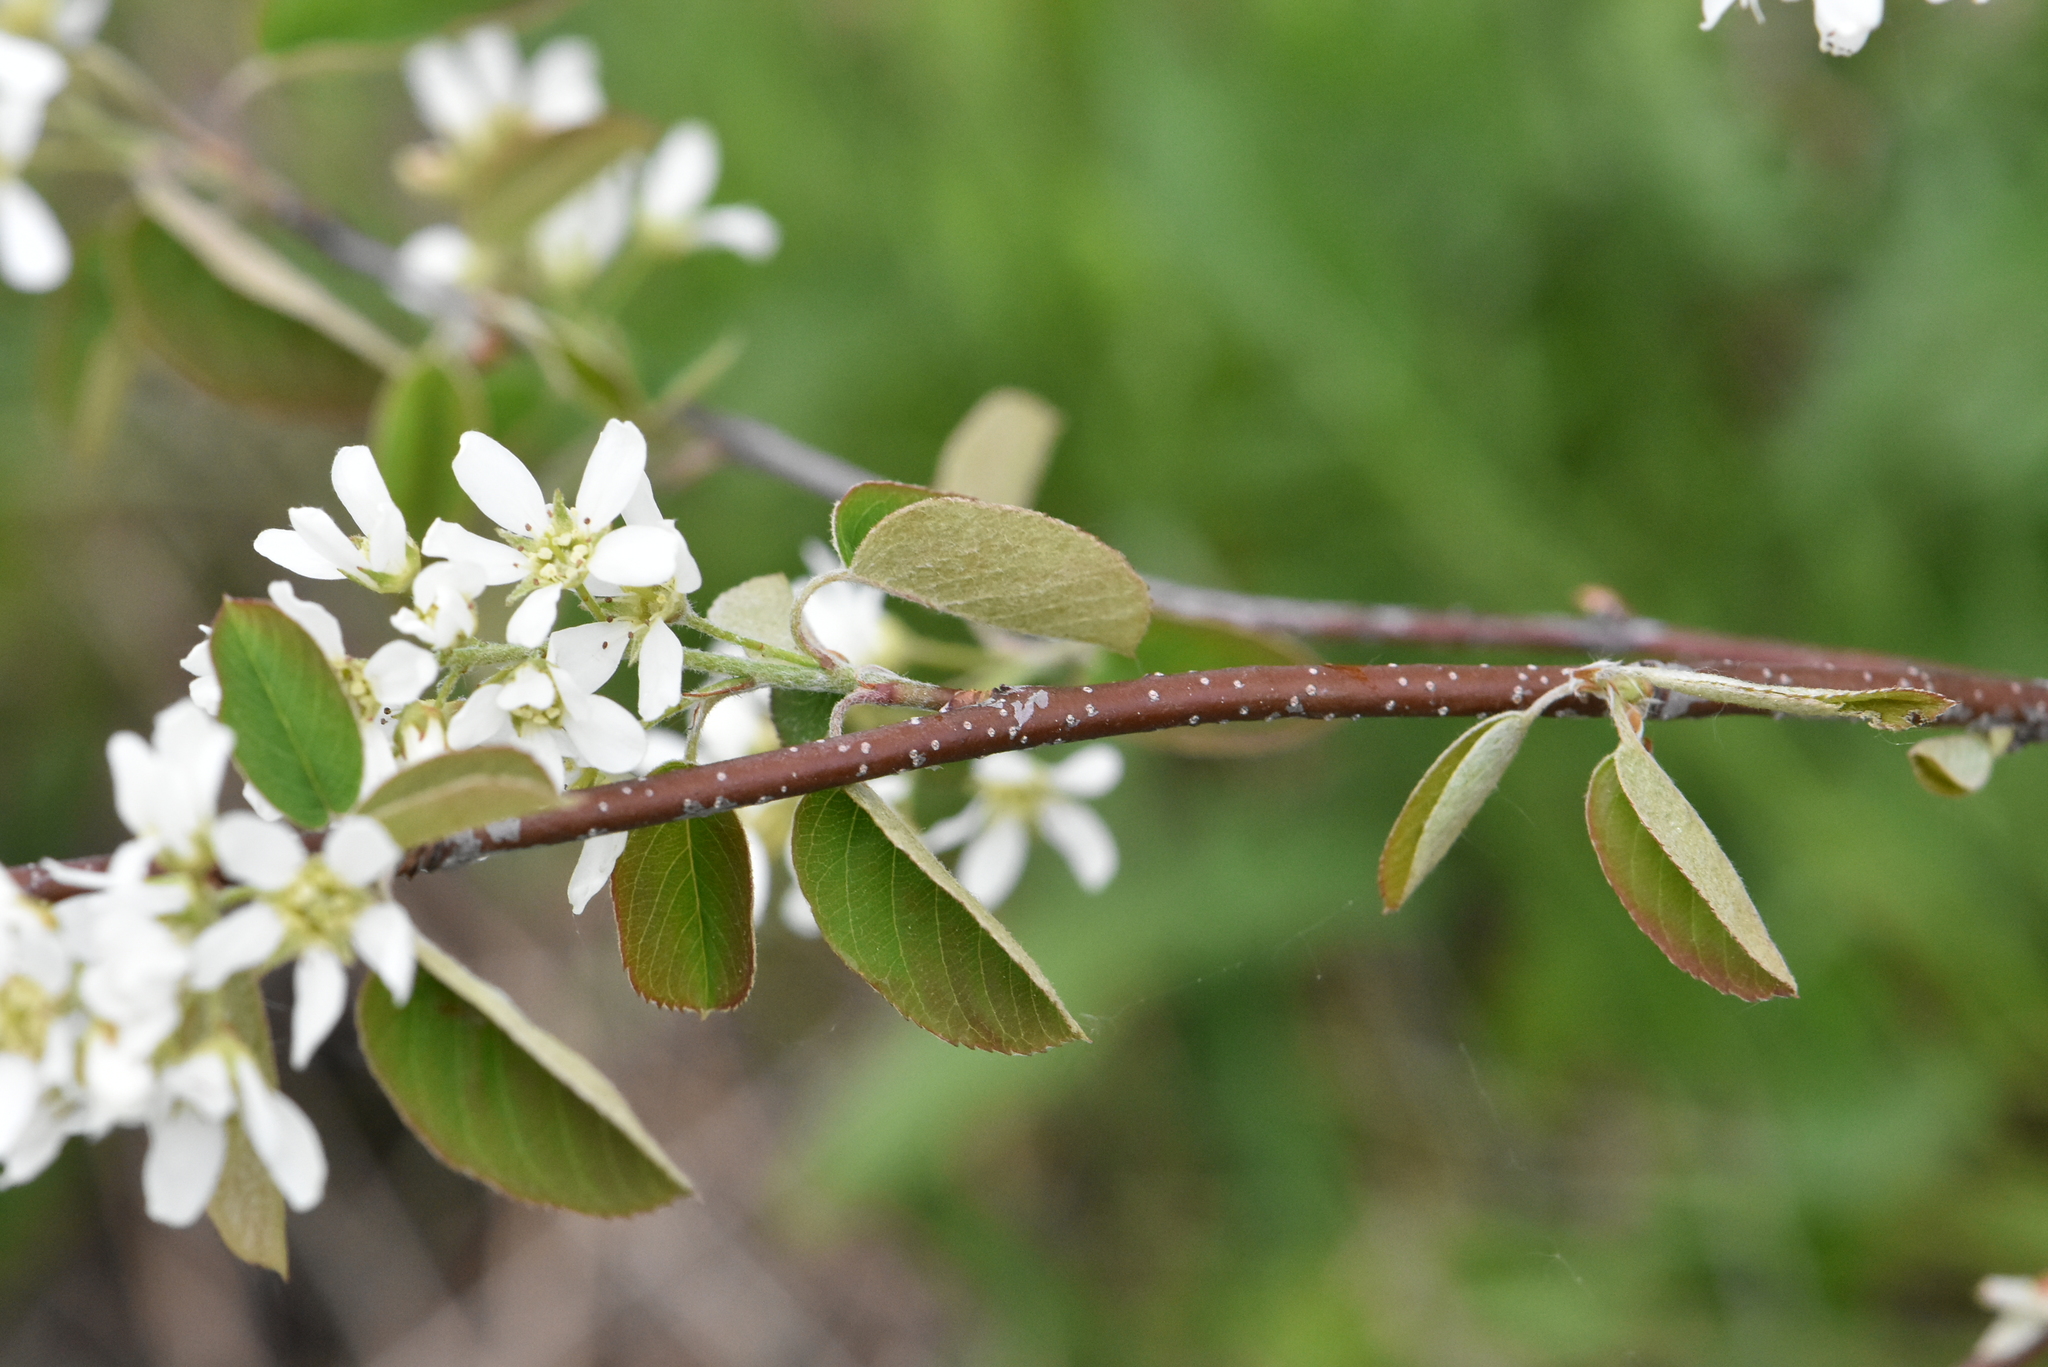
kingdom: Plantae
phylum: Tracheophyta
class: Magnoliopsida
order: Rosales
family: Rosaceae
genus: Amelanchier
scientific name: Amelanchier
